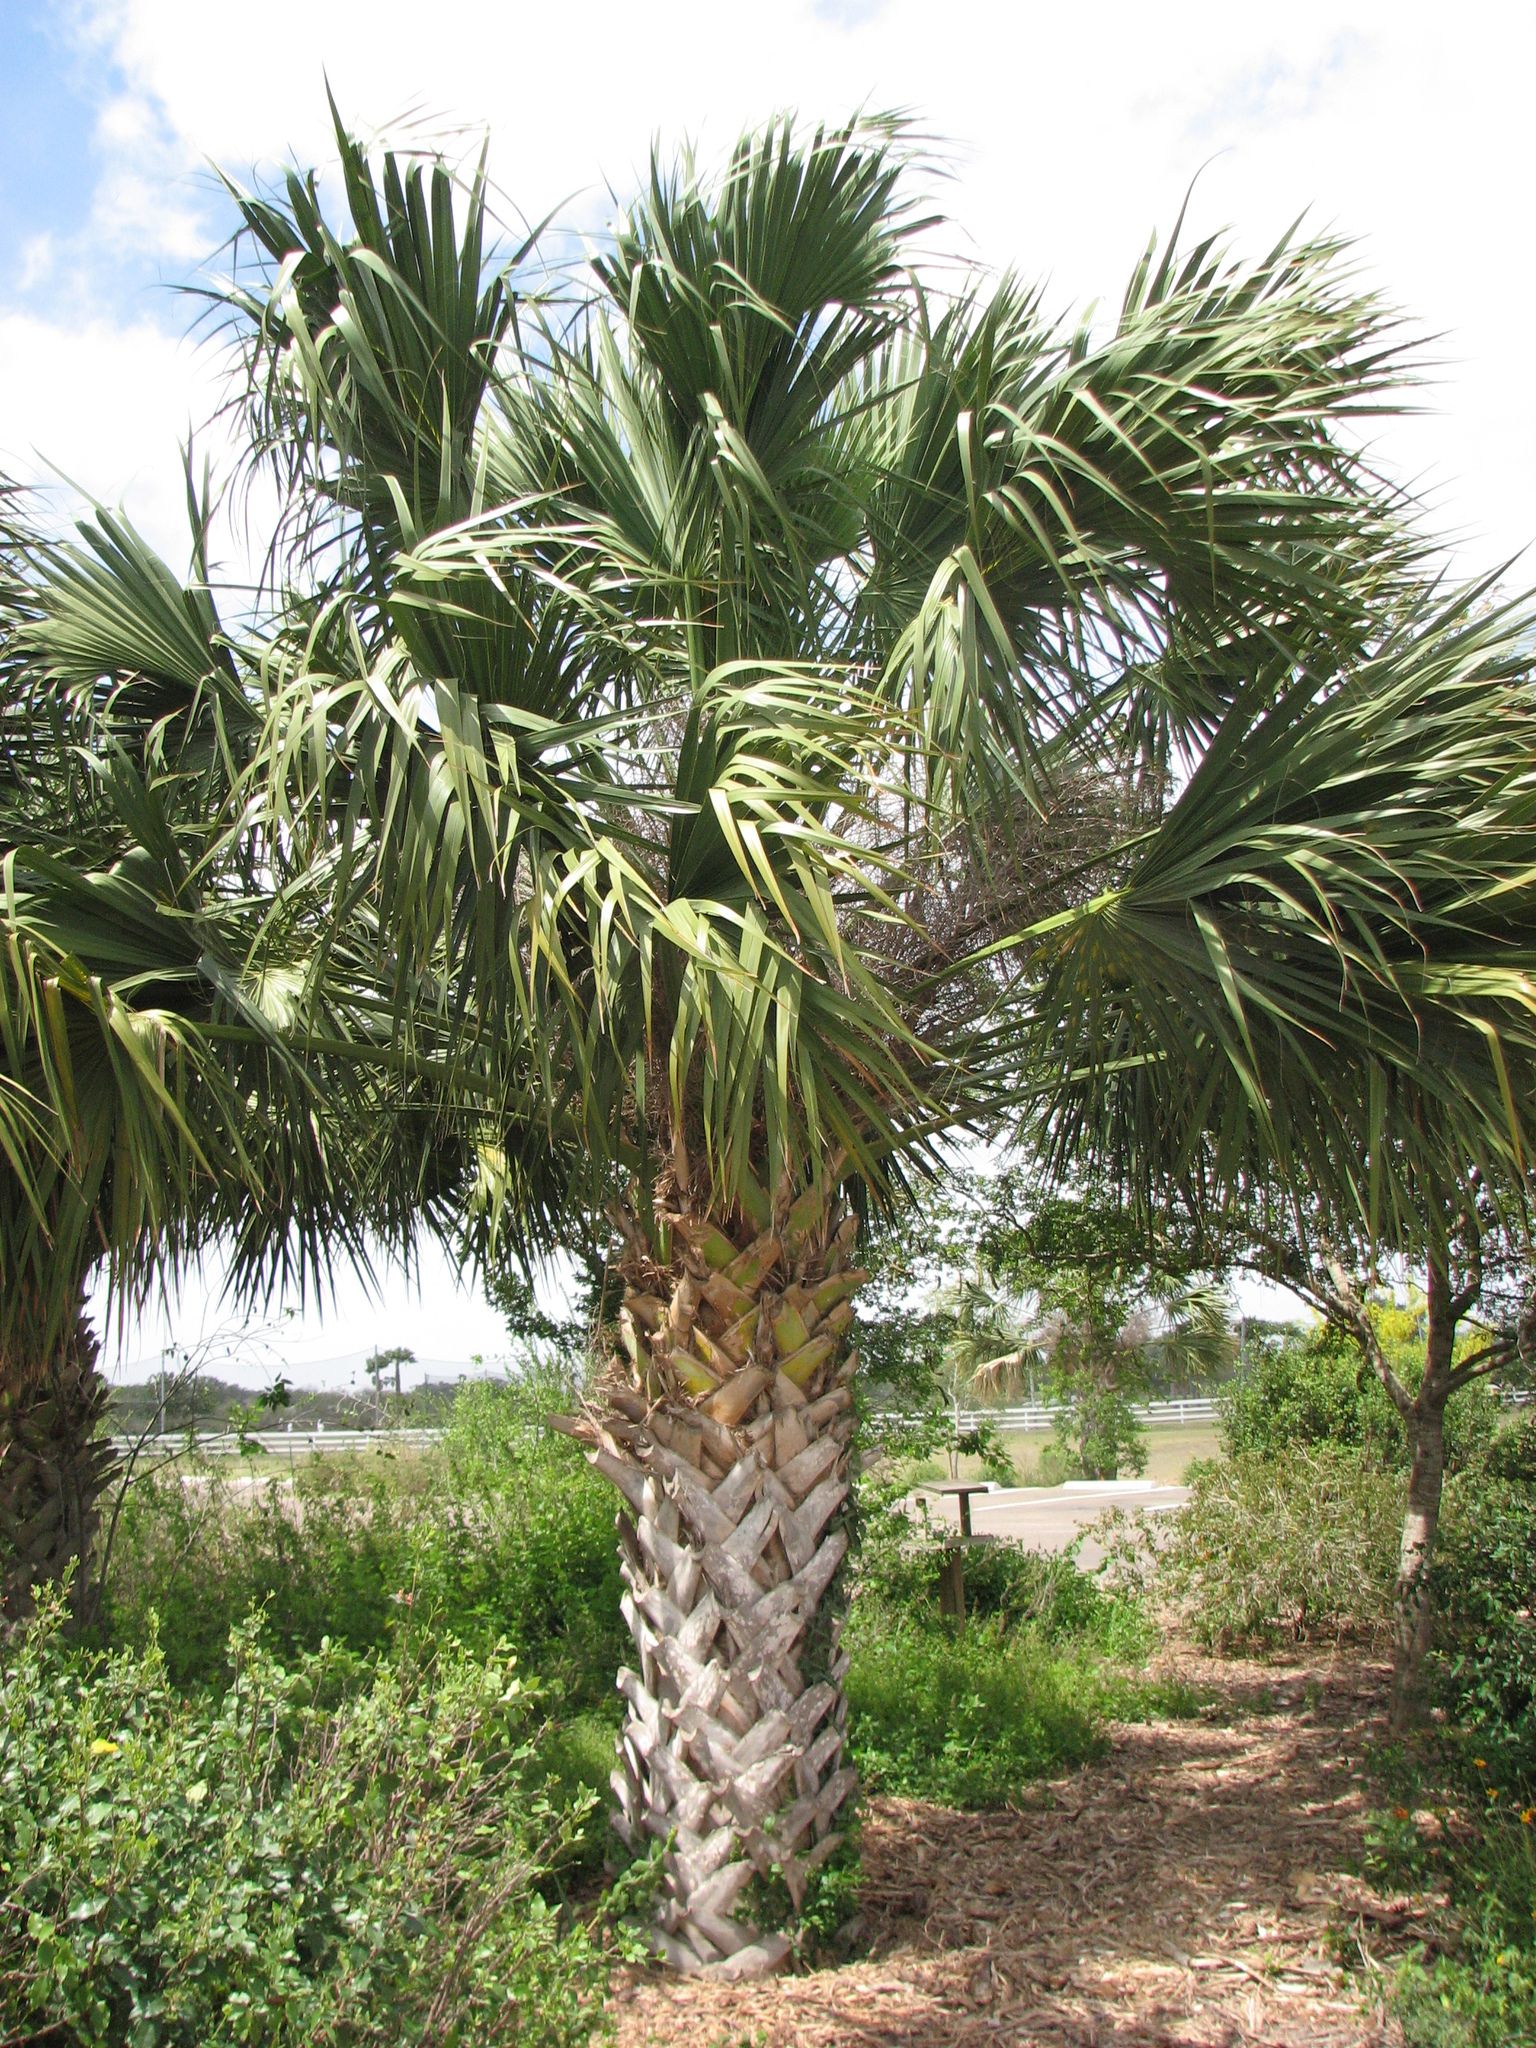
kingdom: Plantae
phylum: Tracheophyta
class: Liliopsida
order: Arecales
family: Arecaceae
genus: Sabal
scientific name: Sabal mexicana
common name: Texas palmetto
